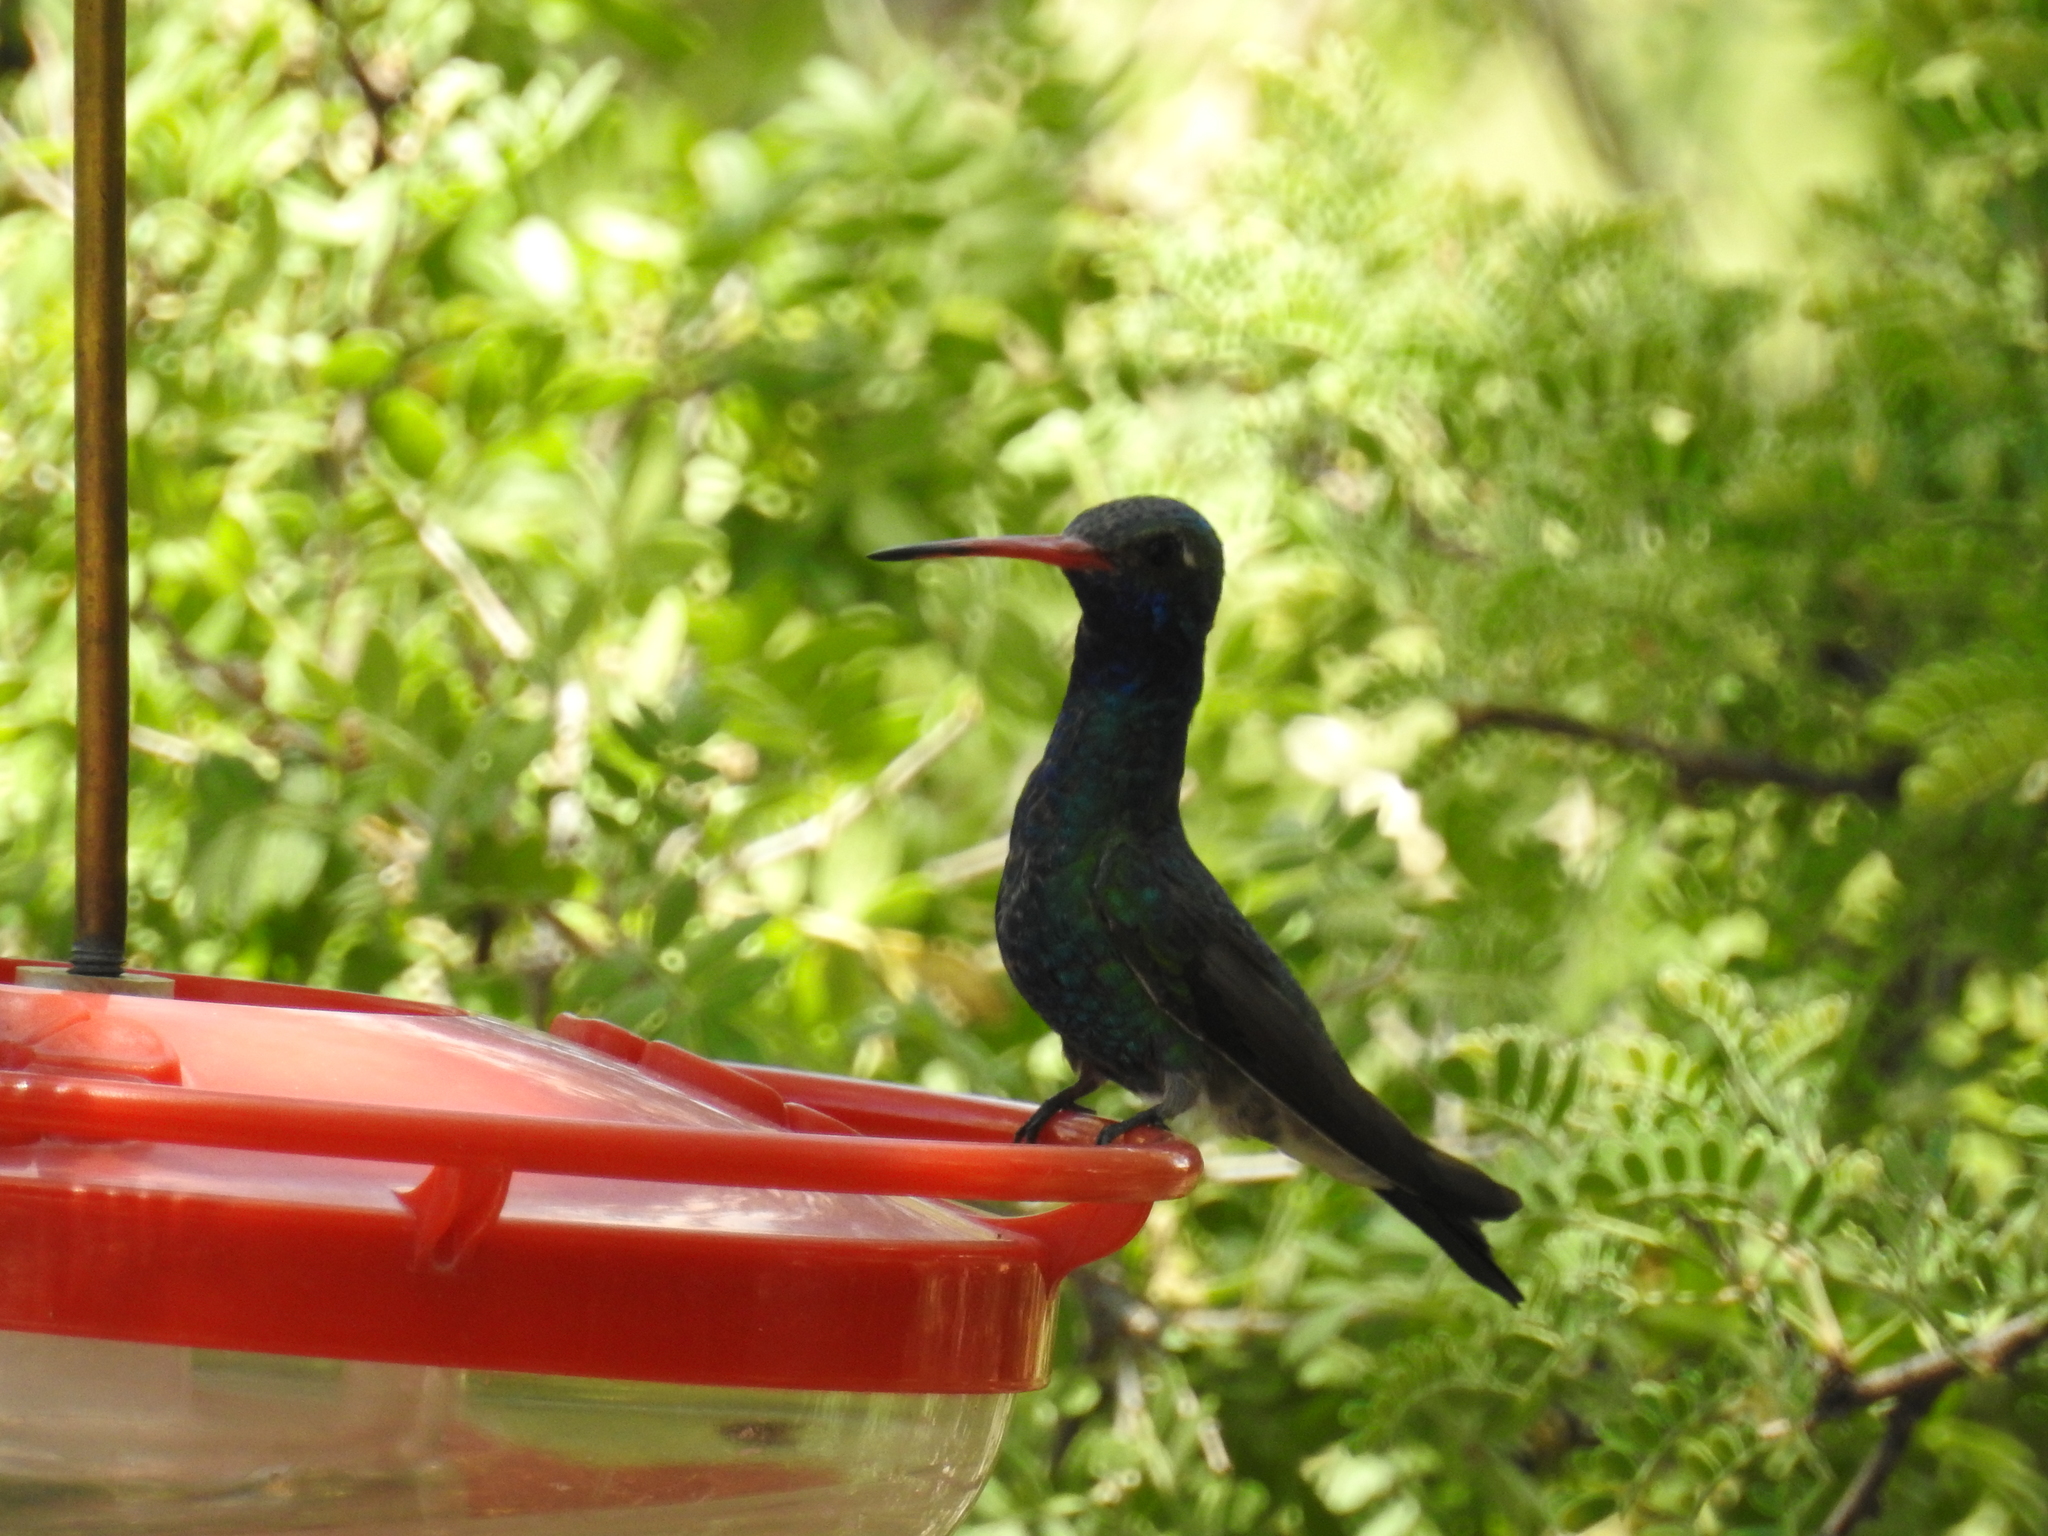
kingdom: Animalia
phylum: Chordata
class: Aves
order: Apodiformes
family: Trochilidae
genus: Cynanthus
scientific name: Cynanthus latirostris
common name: Broad-billed hummingbird
